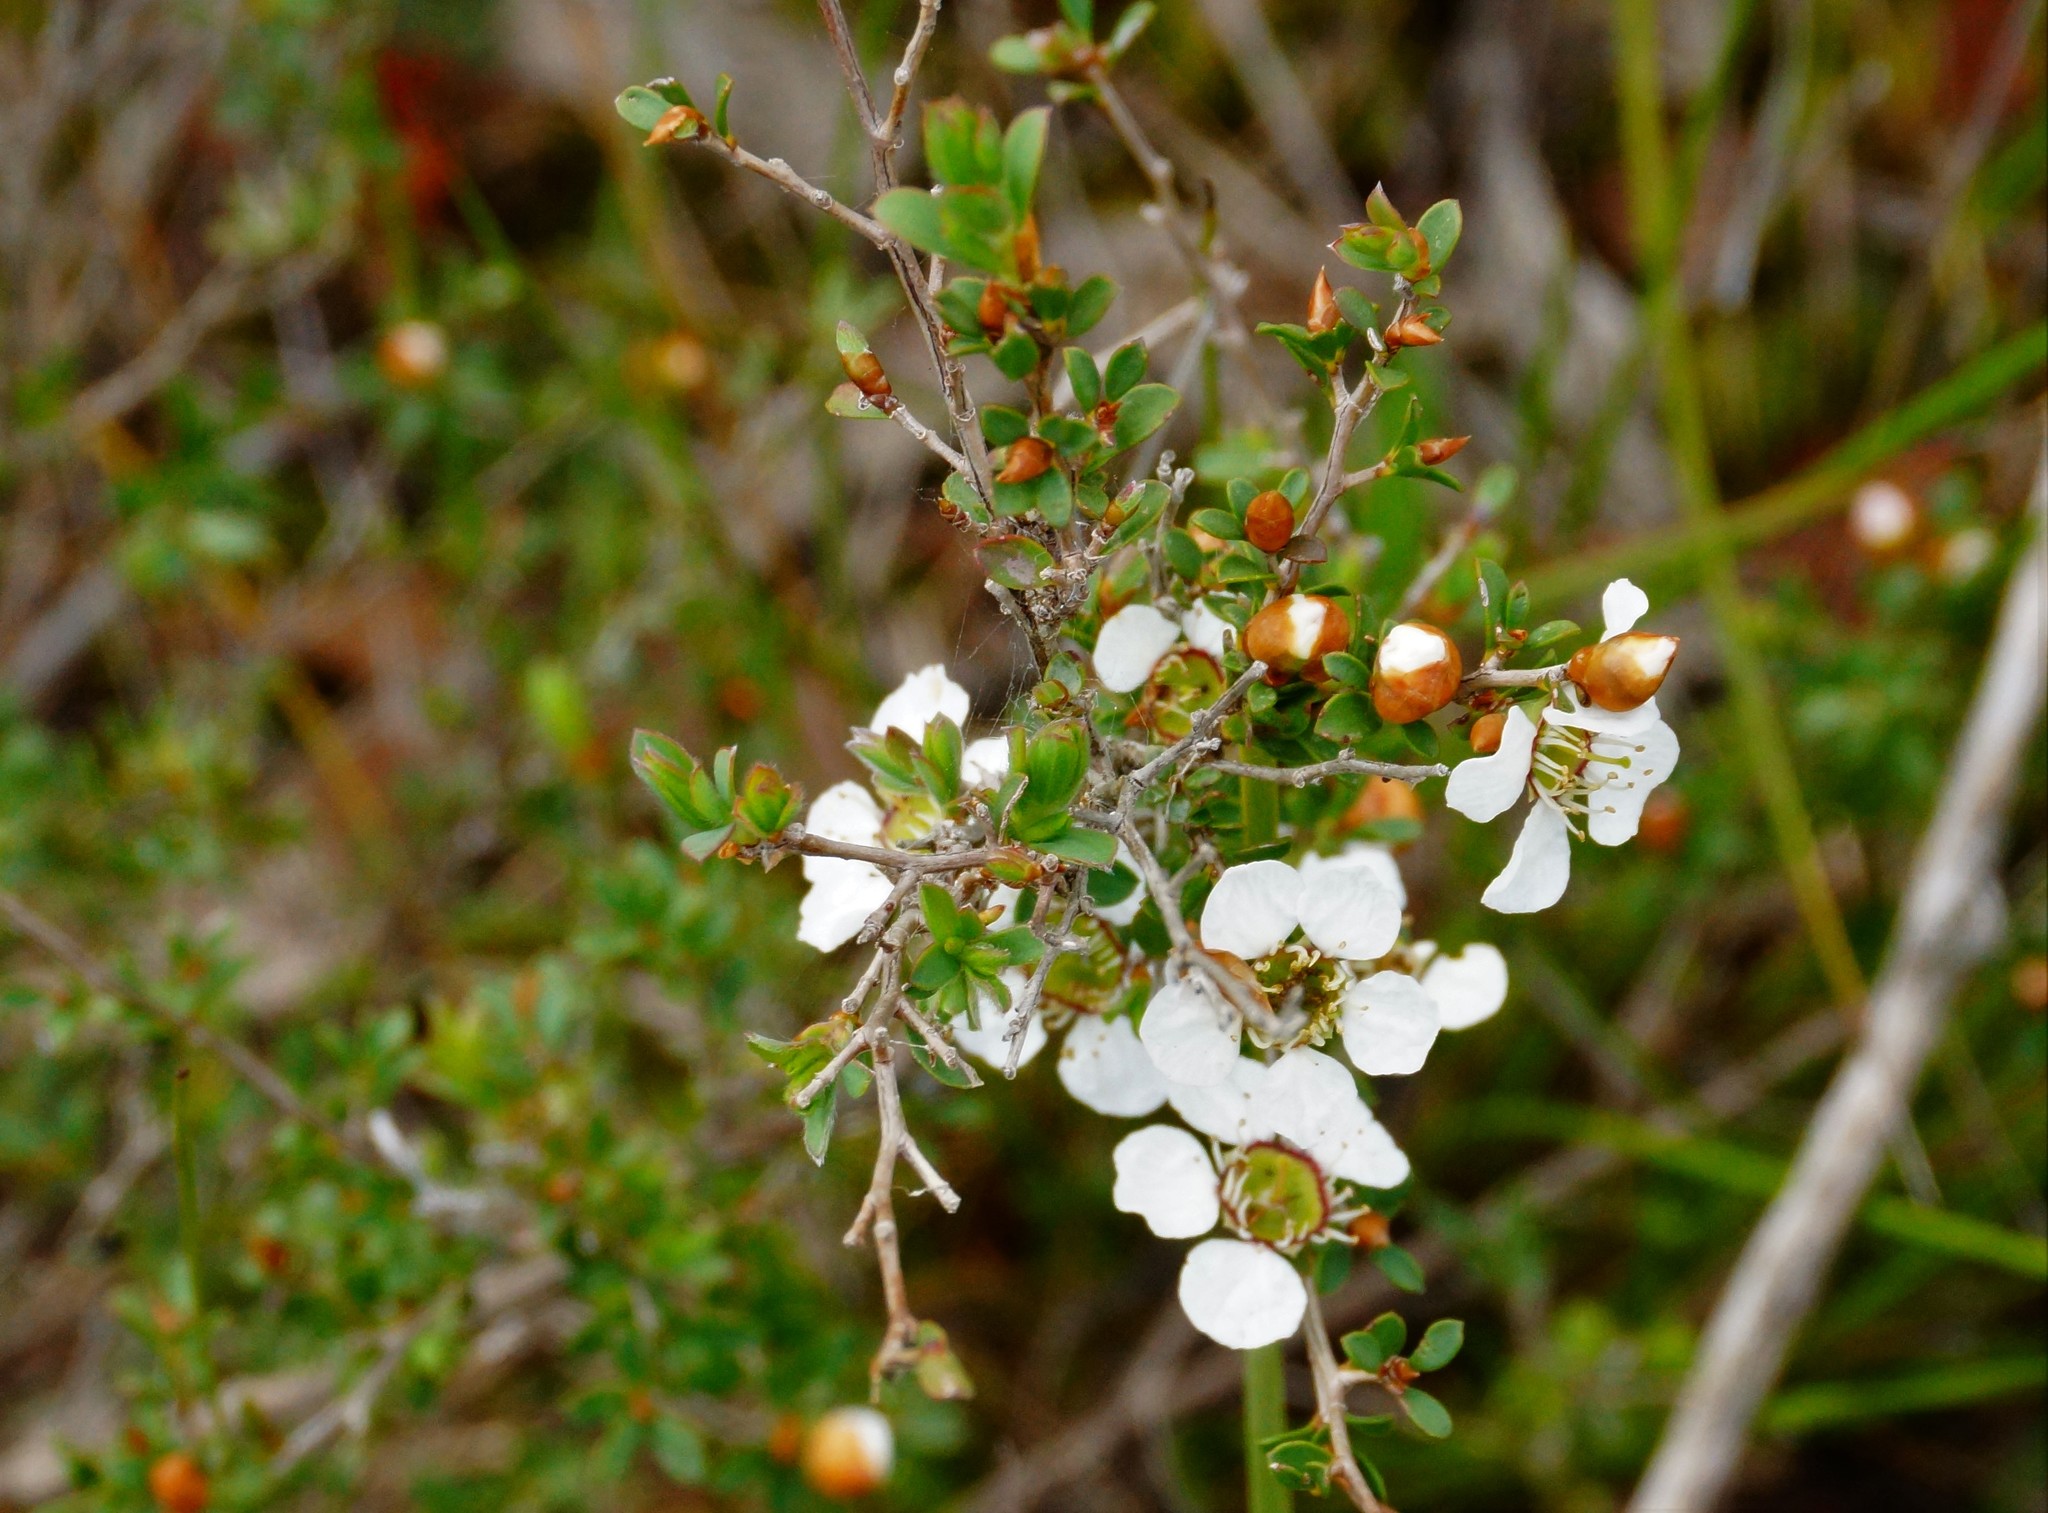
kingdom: Plantae
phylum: Tracheophyta
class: Magnoliopsida
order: Myrtales
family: Myrtaceae
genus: Leptospermum
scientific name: Leptospermum myrsinoides
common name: Heath teatree
